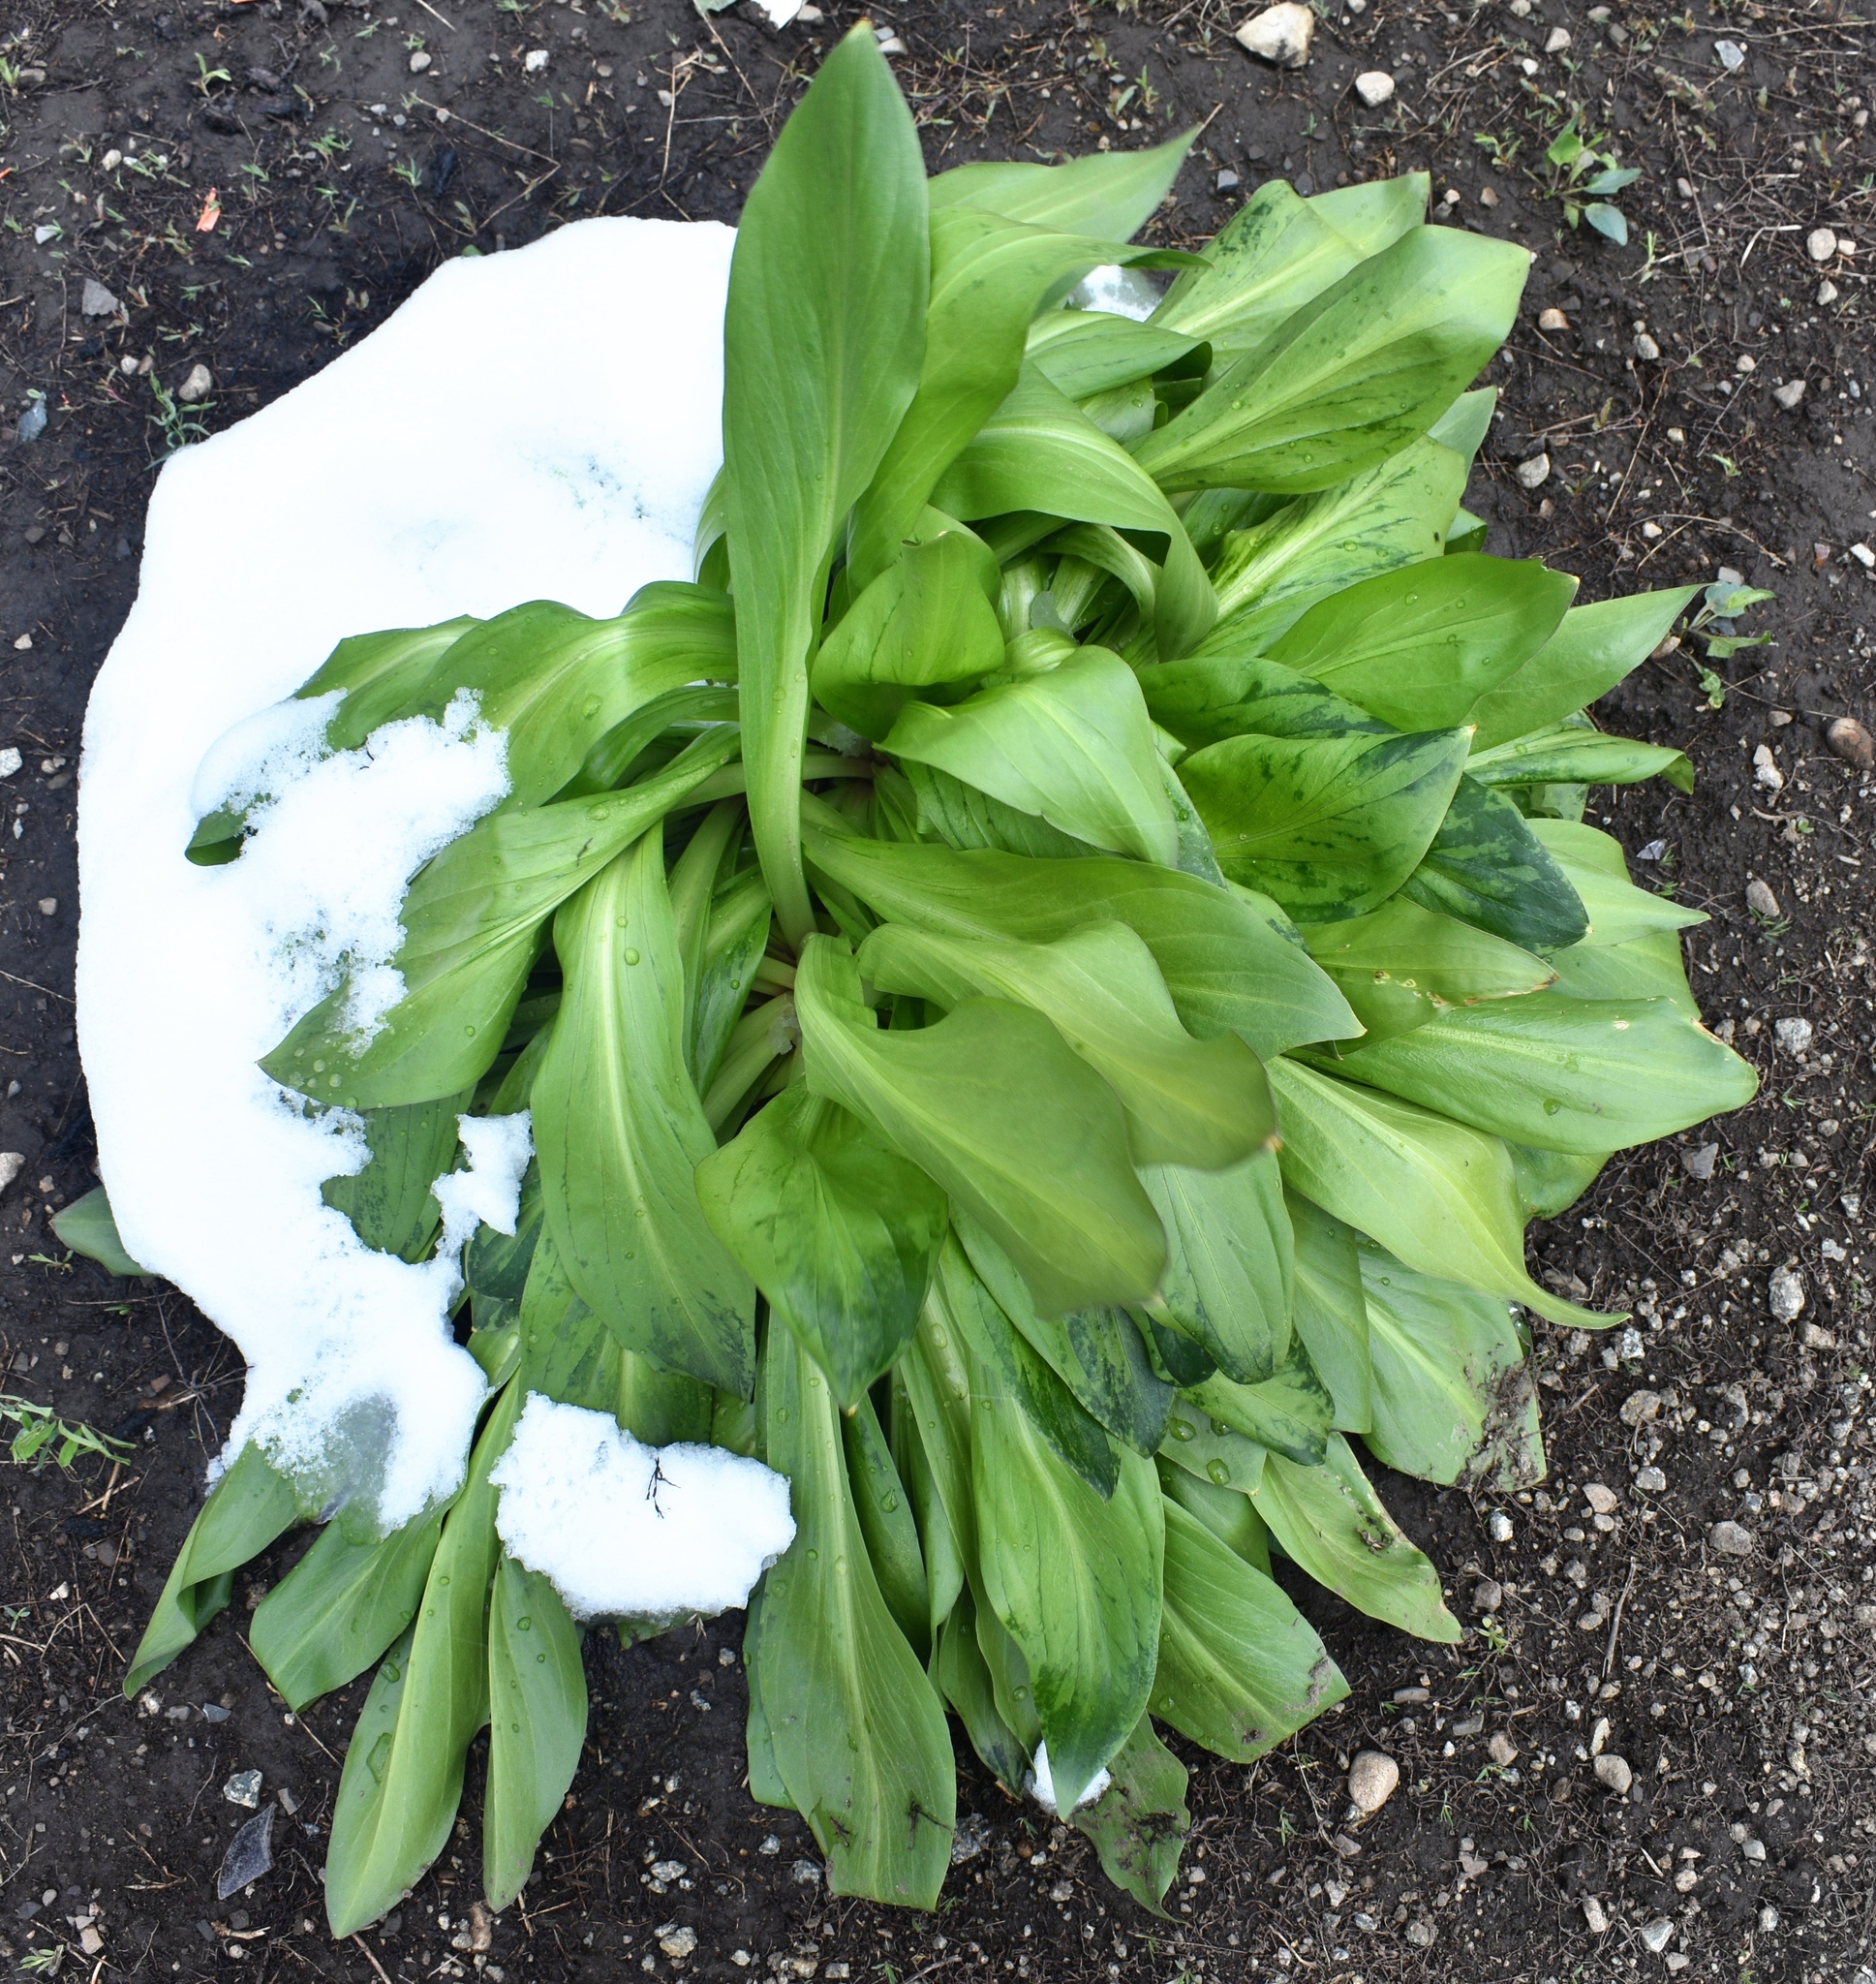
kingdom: Plantae
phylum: Tracheophyta
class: Magnoliopsida
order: Gentianales
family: Gentianaceae
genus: Frasera
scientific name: Frasera speciosa
